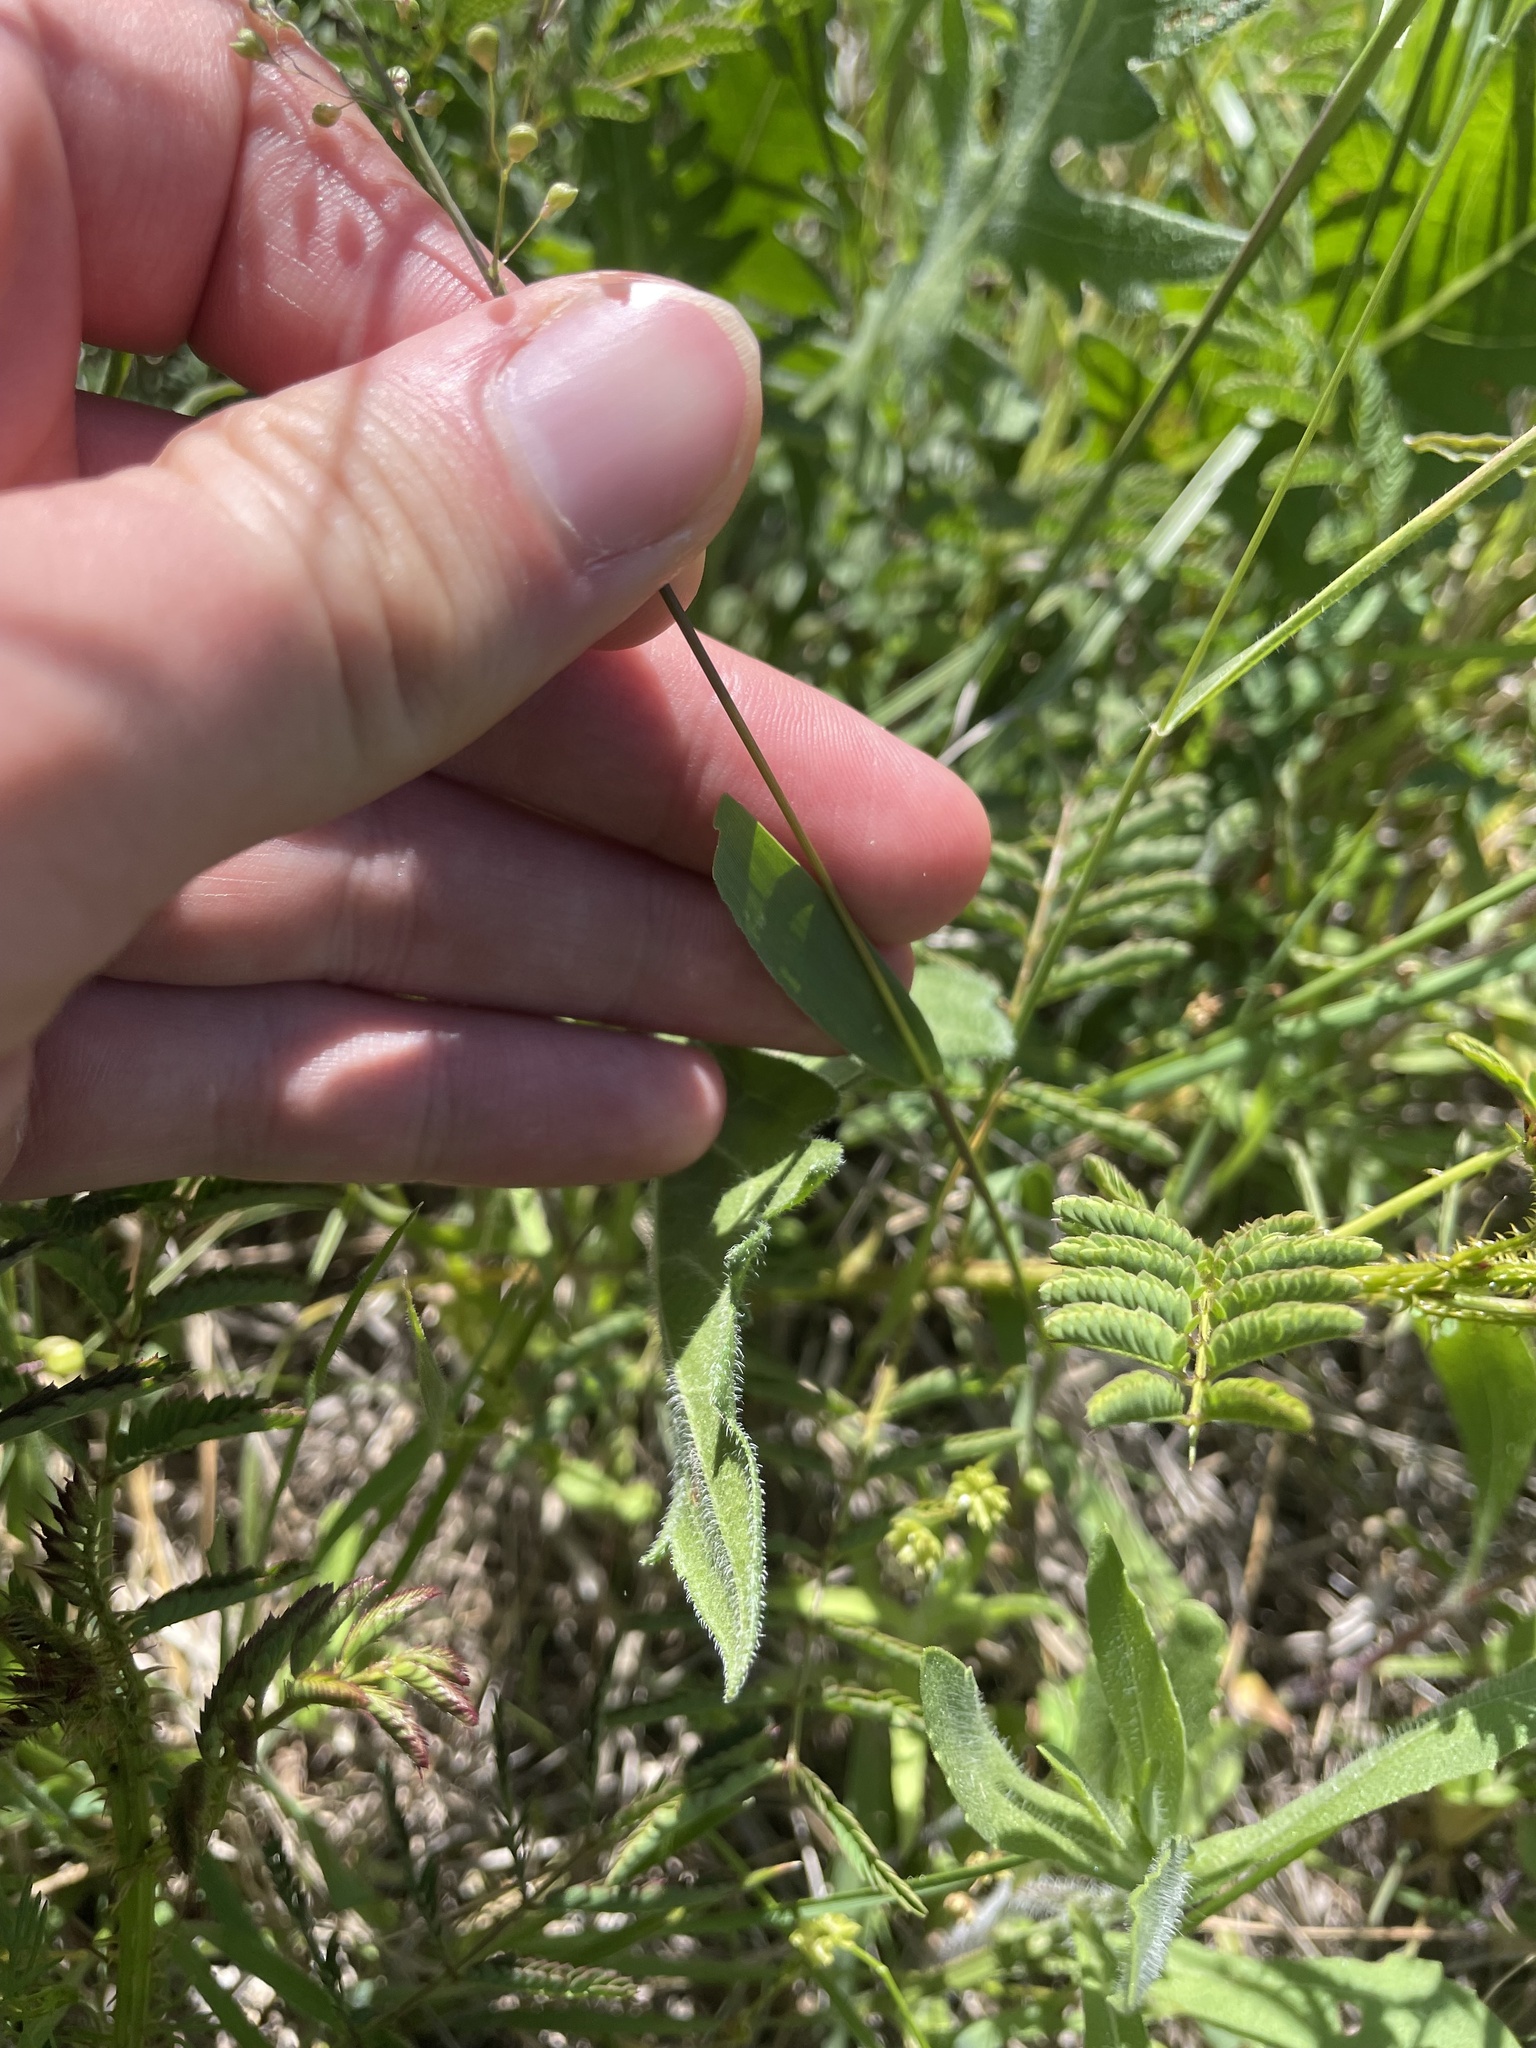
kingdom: Plantae
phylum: Tracheophyta
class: Liliopsida
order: Poales
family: Poaceae
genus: Dichanthelium
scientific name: Dichanthelium oligosanthes
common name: Few-anther obscuregrass
